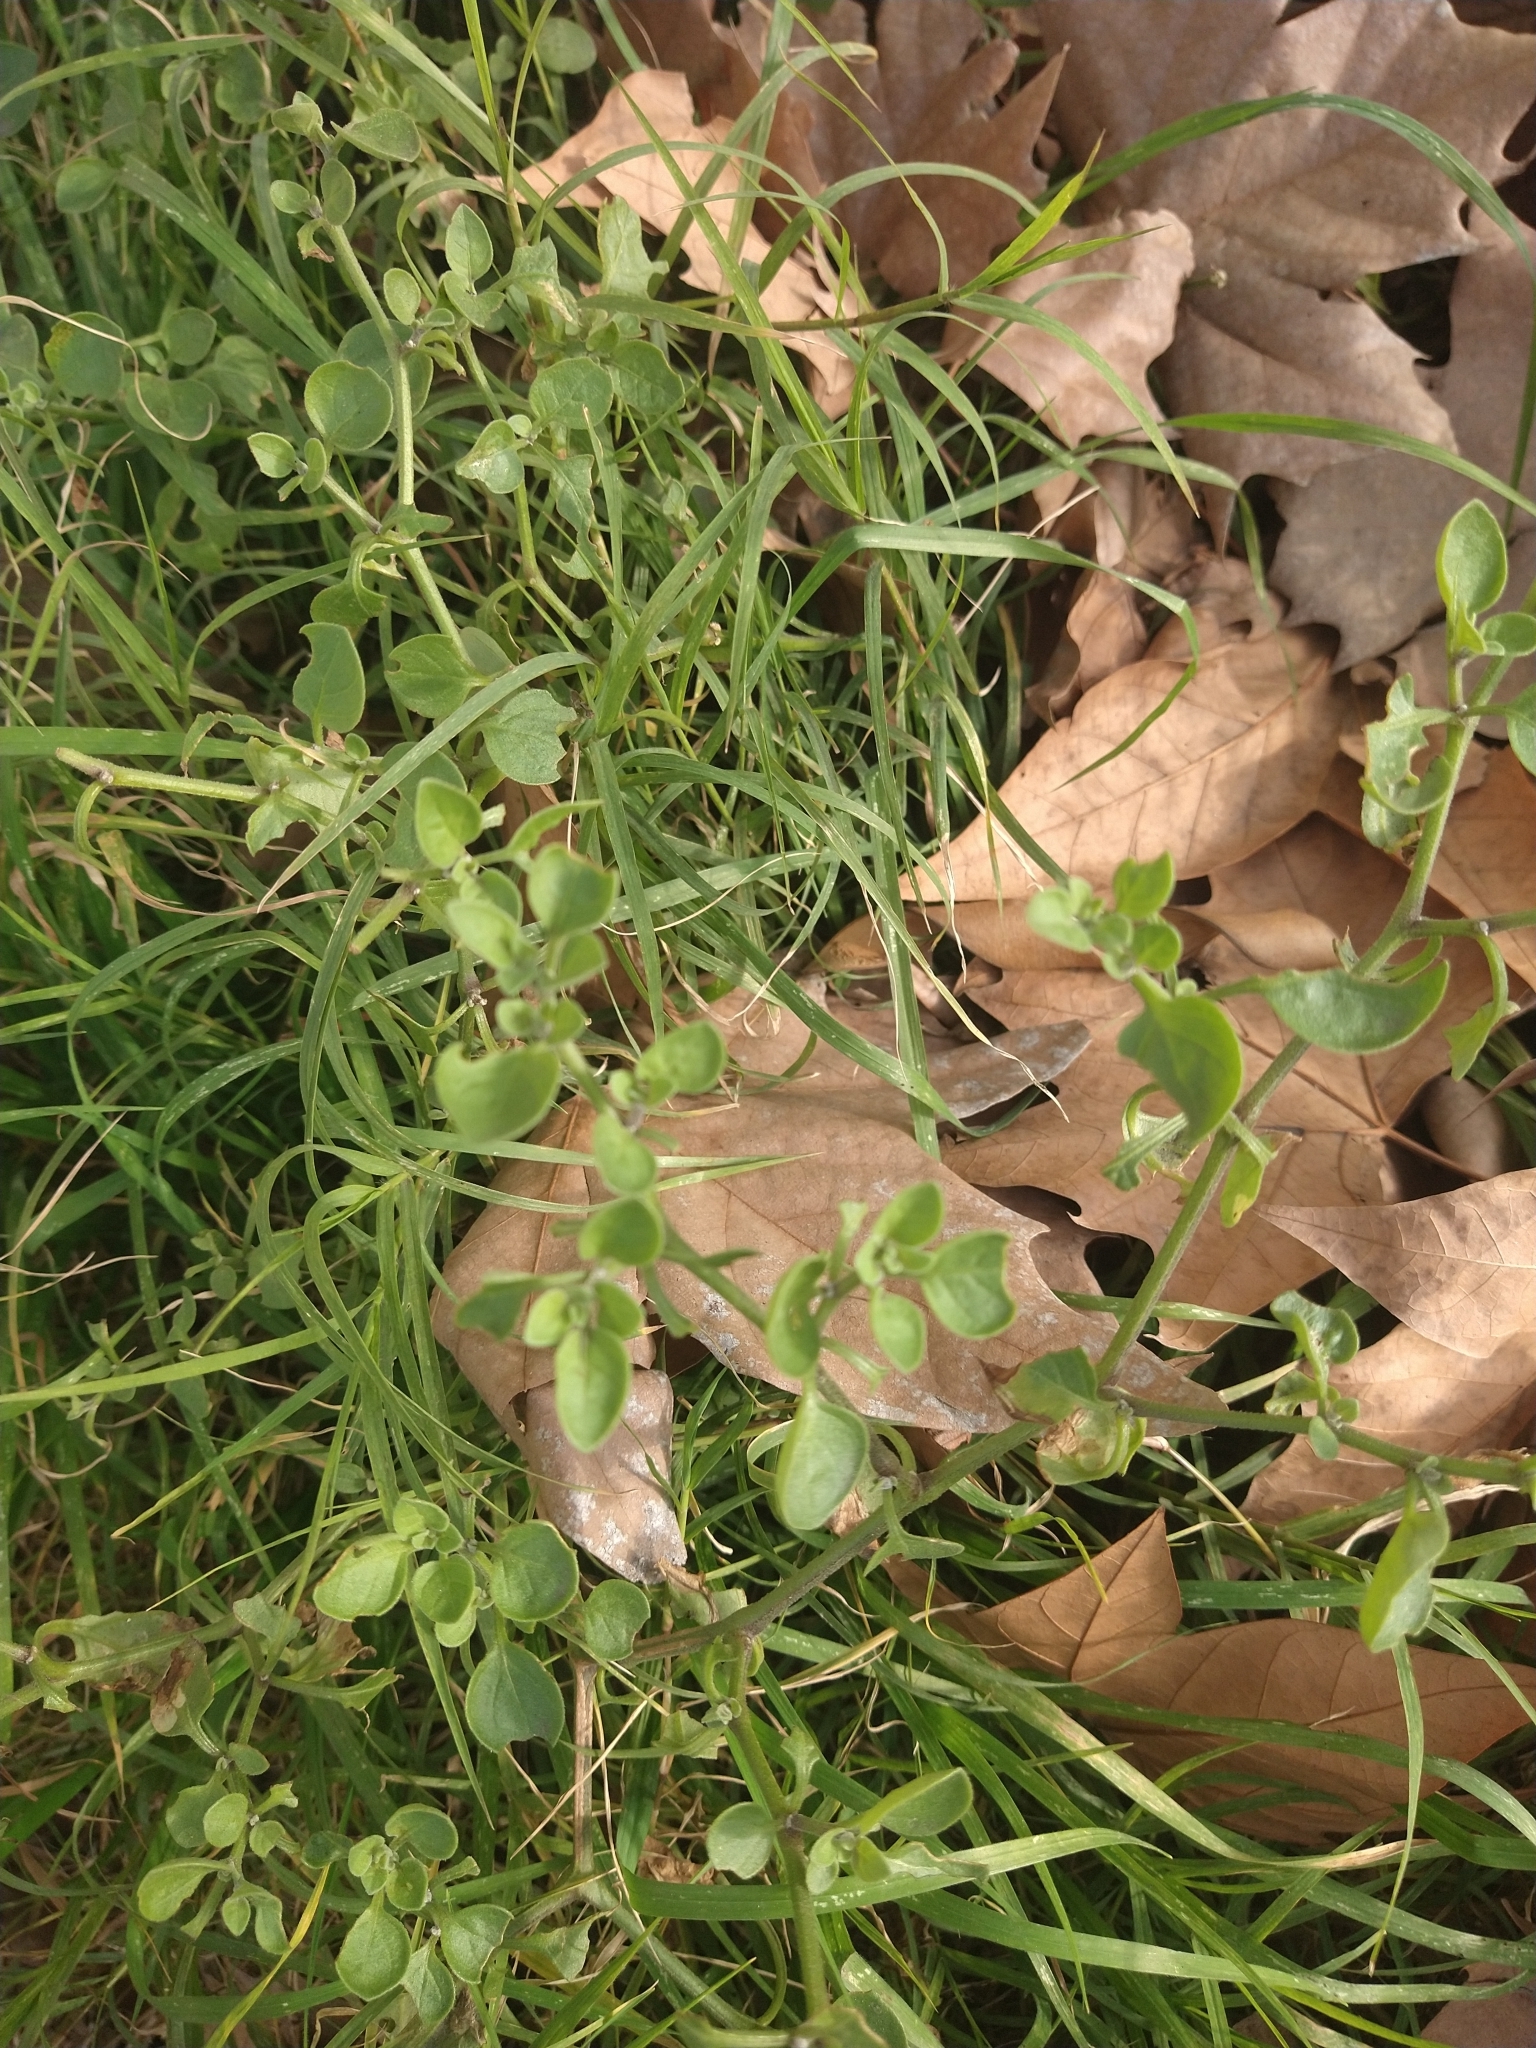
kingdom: Plantae
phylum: Tracheophyta
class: Magnoliopsida
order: Solanales
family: Solanaceae
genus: Salpichroa
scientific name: Salpichroa origanifolia
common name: Lily-of-the-valley-vine
